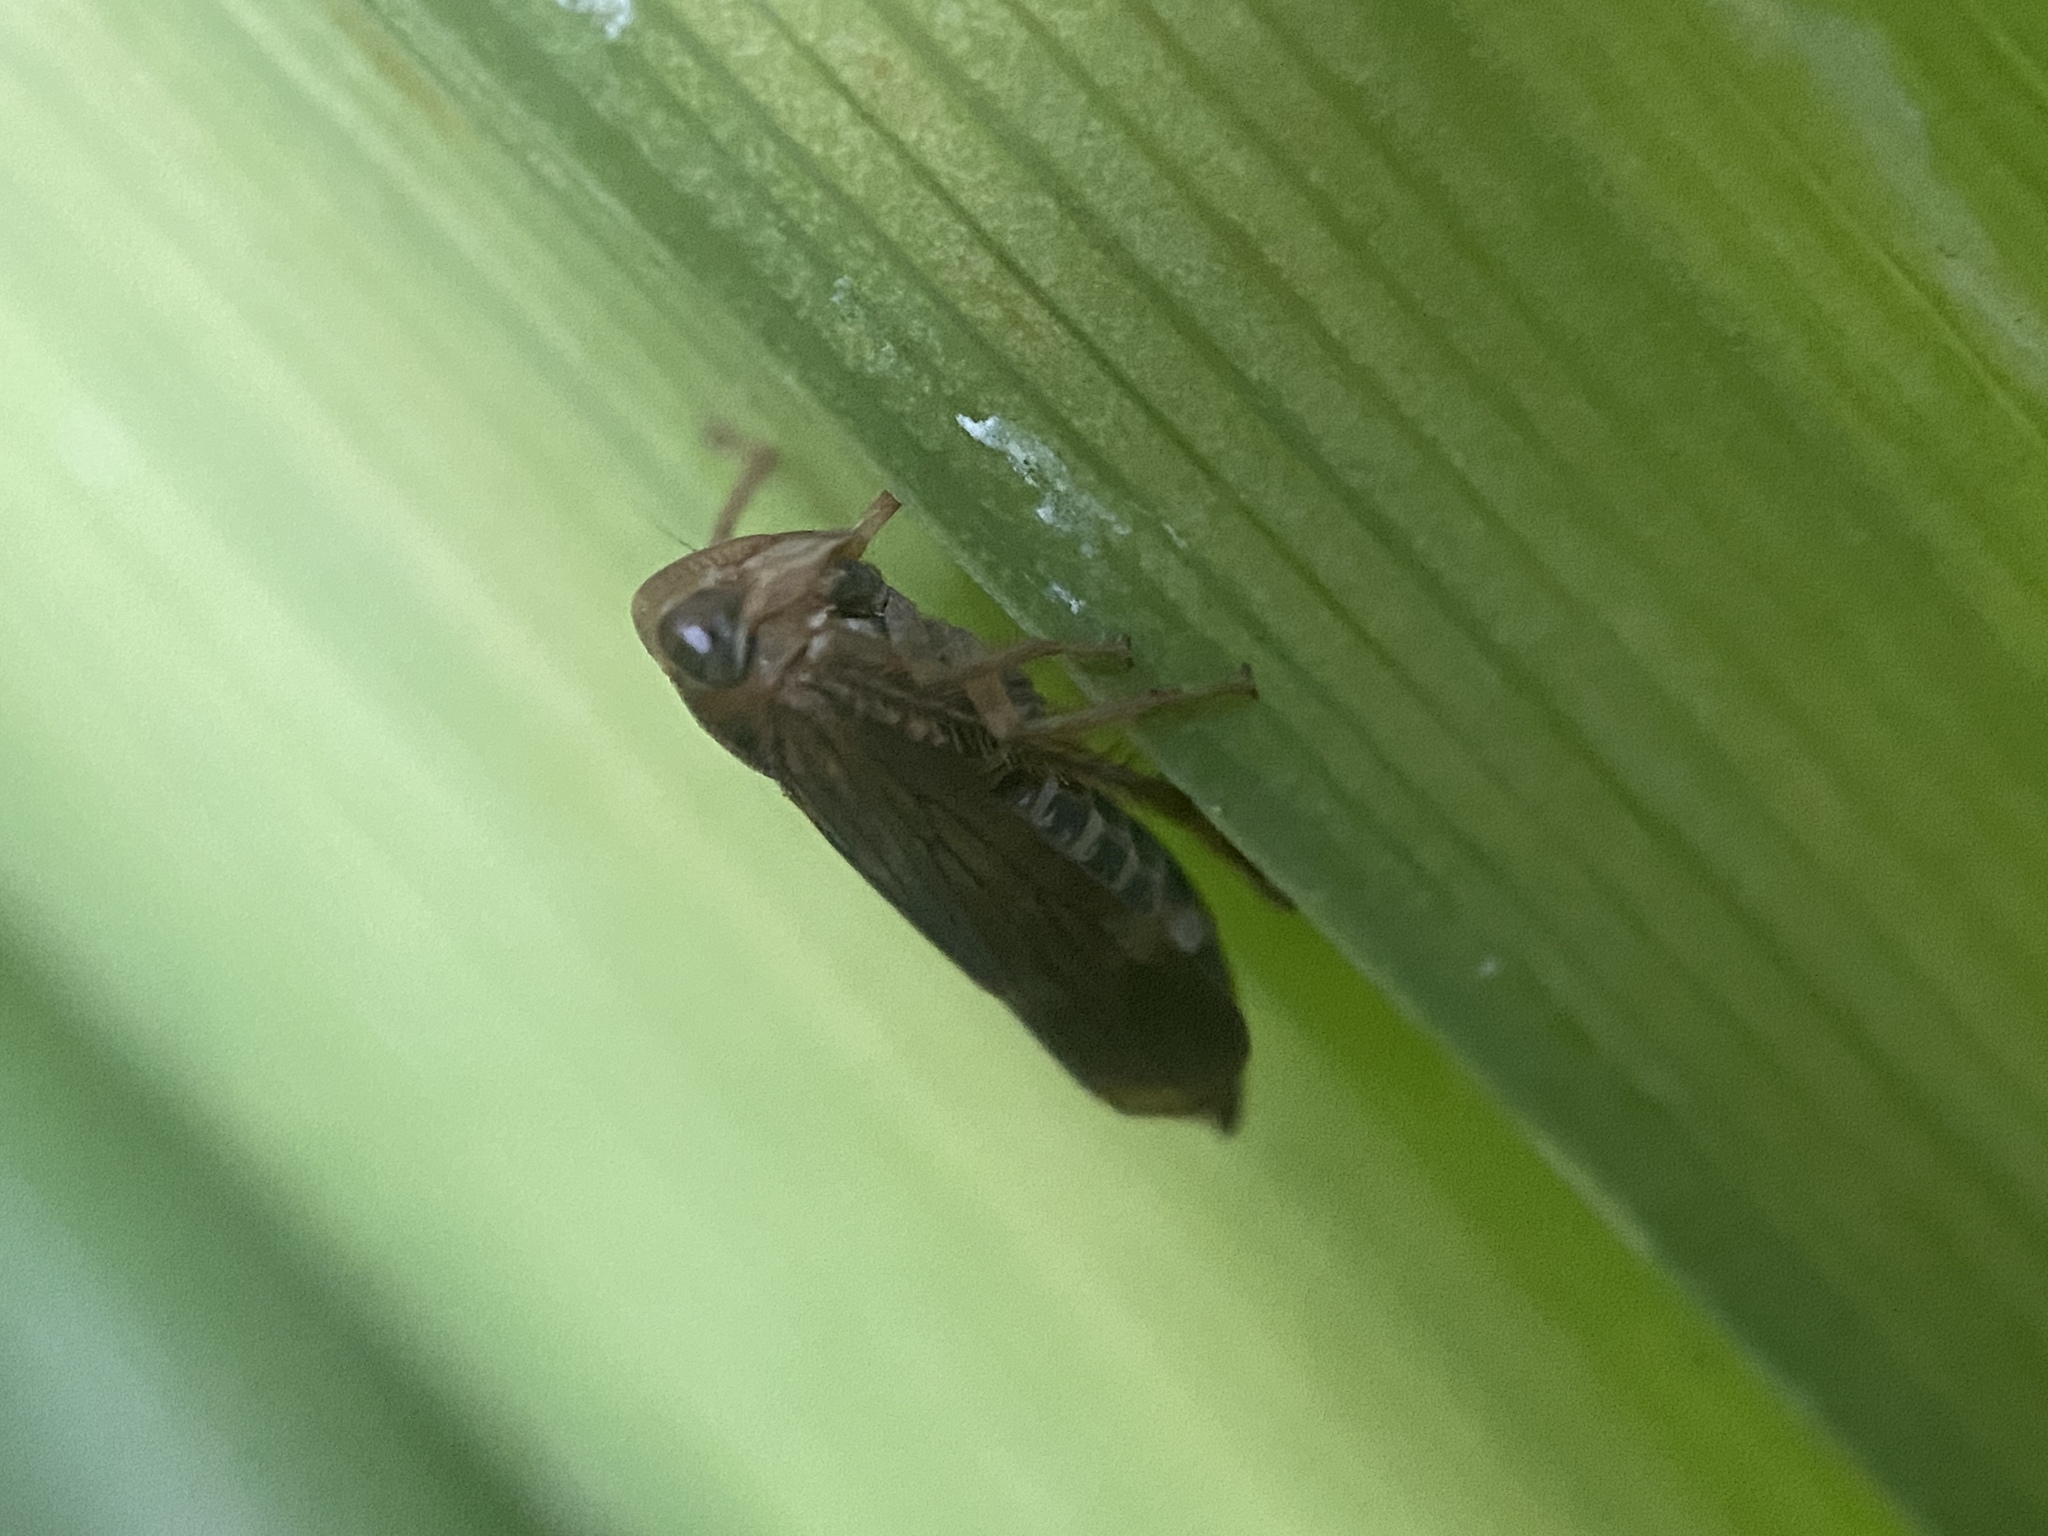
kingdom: Animalia
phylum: Arthropoda
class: Insecta
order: Hemiptera
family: Cicadellidae
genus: Jikradia
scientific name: Jikradia olitoria
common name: Coppery leafhopper
